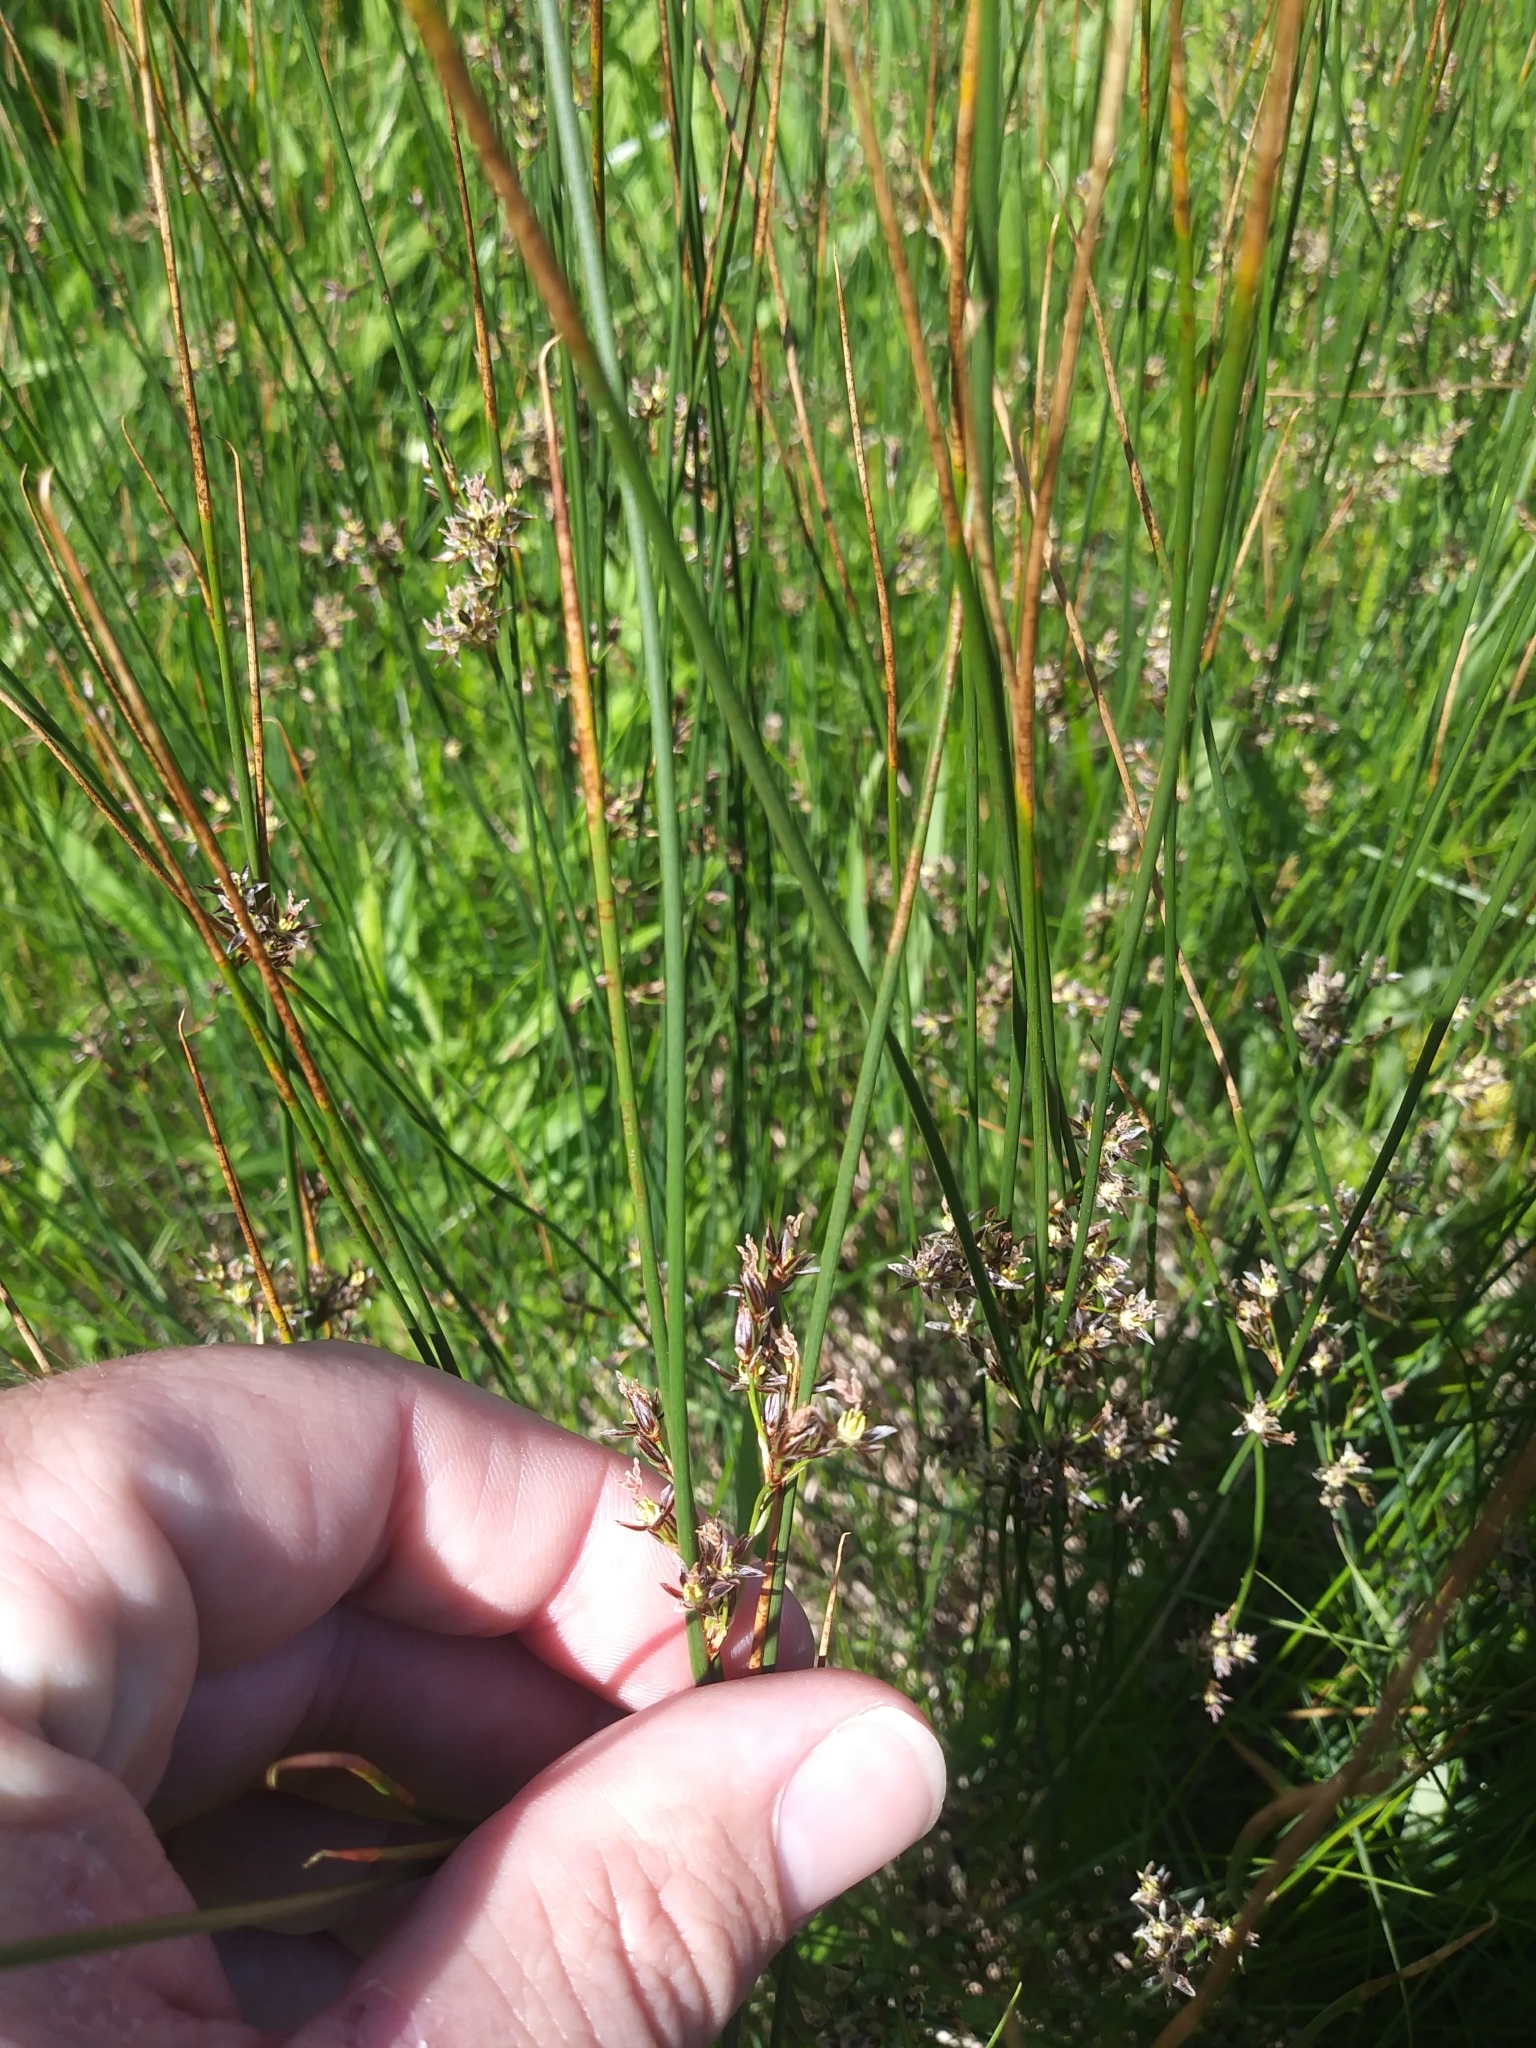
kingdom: Plantae
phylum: Tracheophyta
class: Liliopsida
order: Poales
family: Juncaceae
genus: Juncus
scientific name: Juncus balticus
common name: Baltic rush
